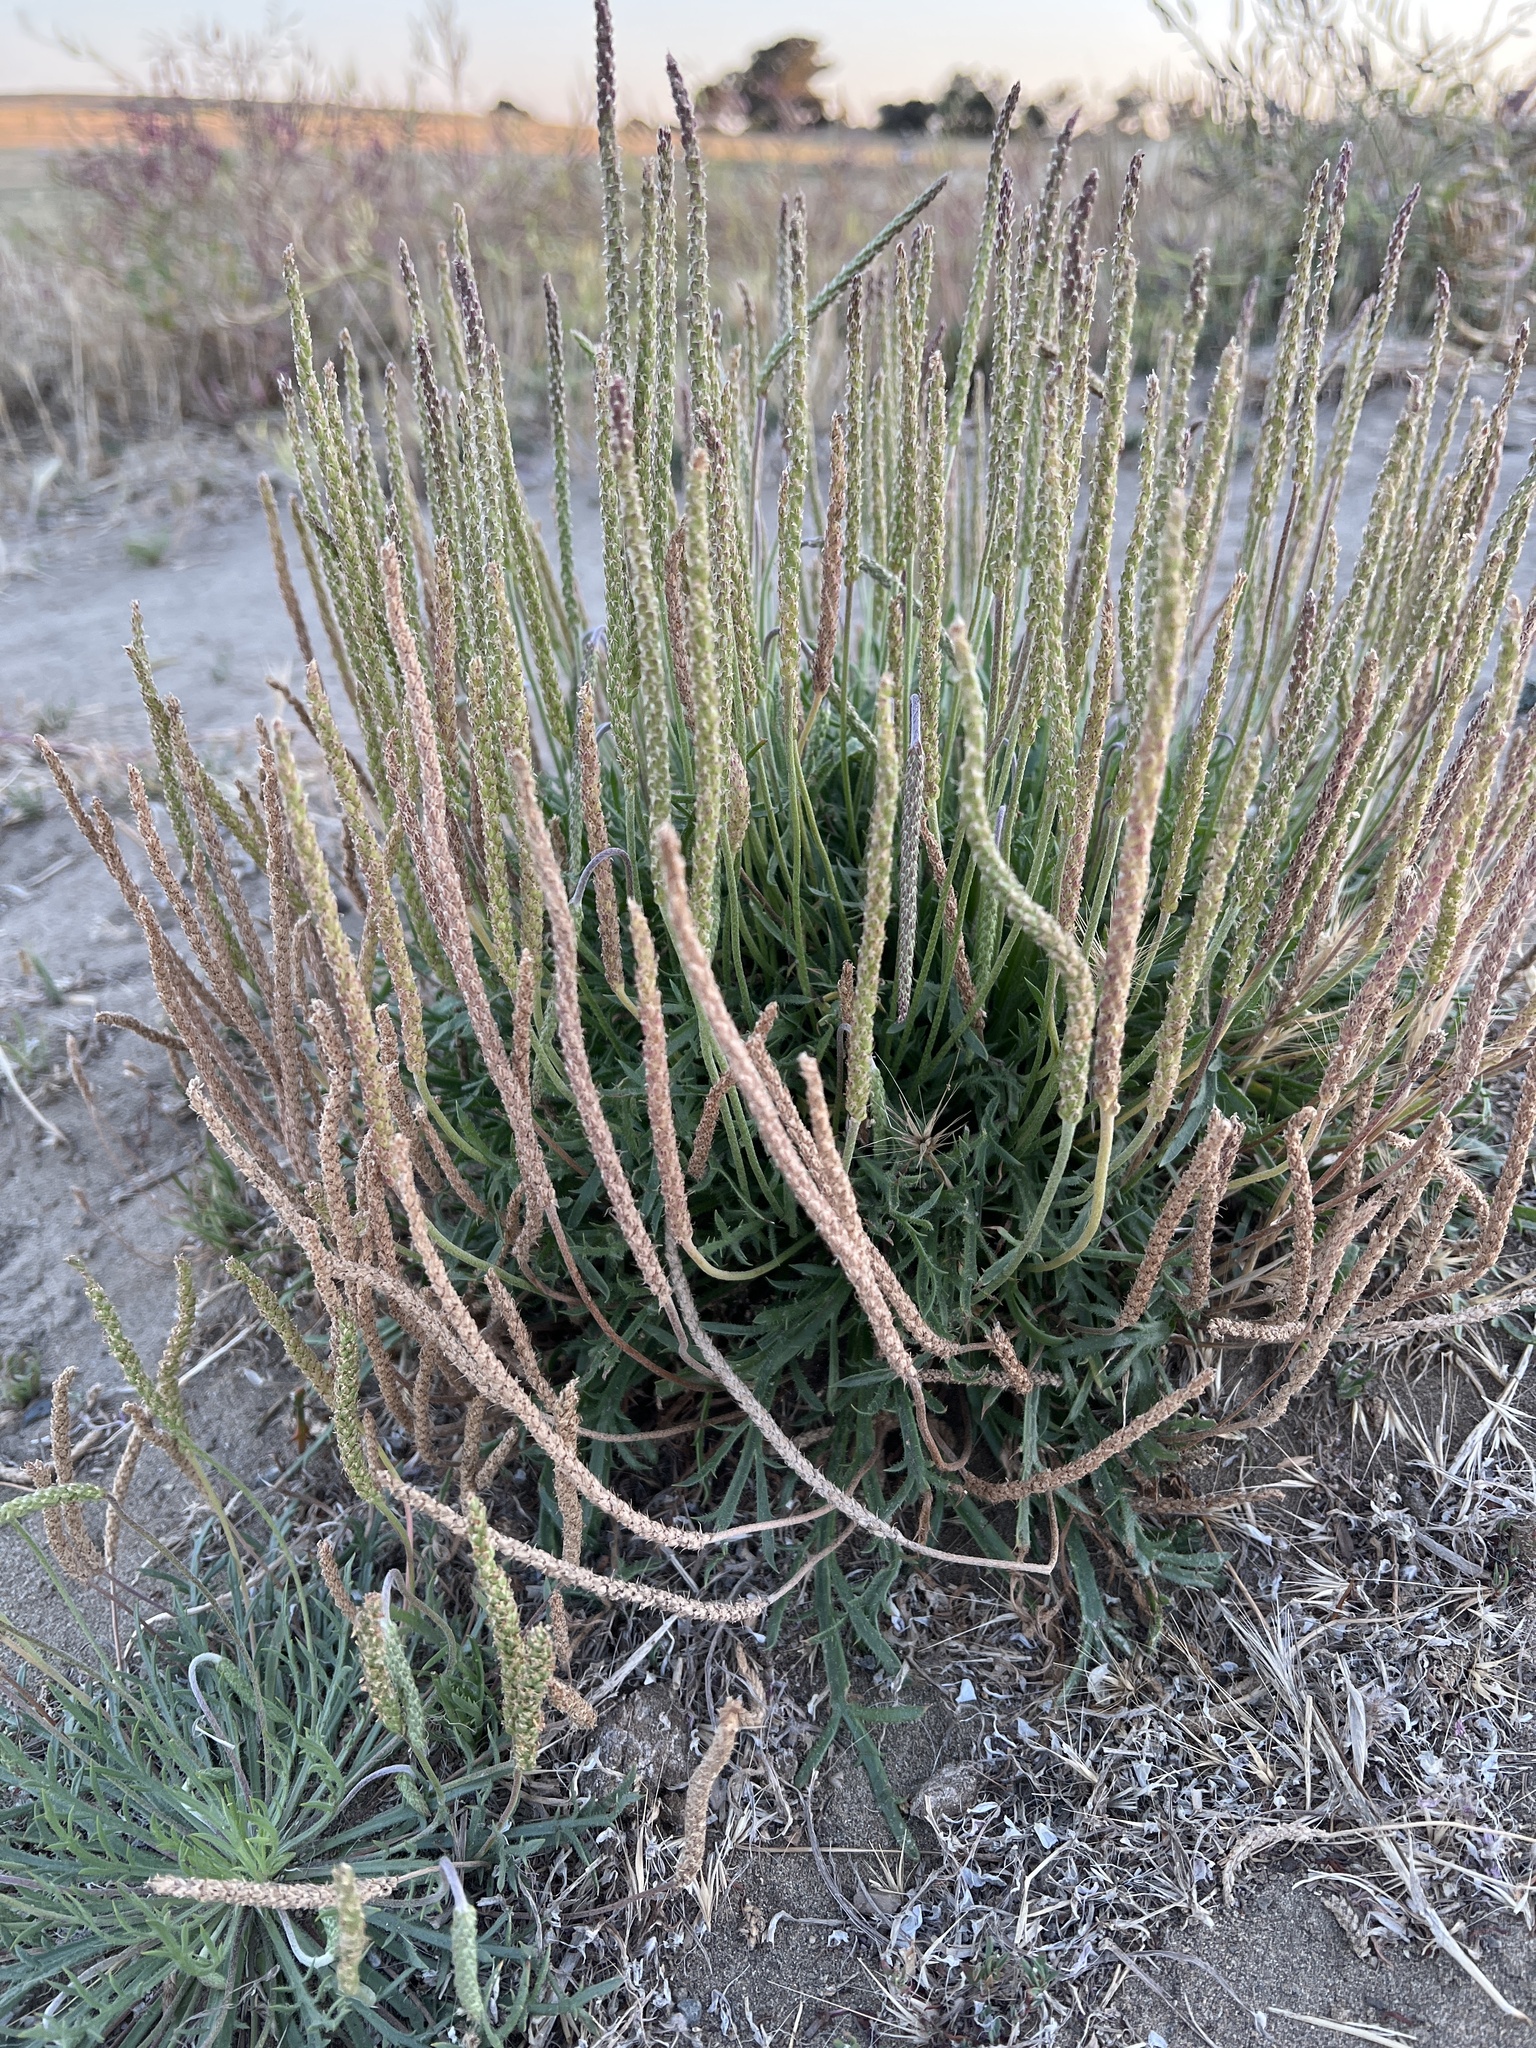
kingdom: Plantae
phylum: Tracheophyta
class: Magnoliopsida
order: Lamiales
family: Plantaginaceae
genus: Plantago
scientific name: Plantago coronopus
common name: Buck's-horn plantain
